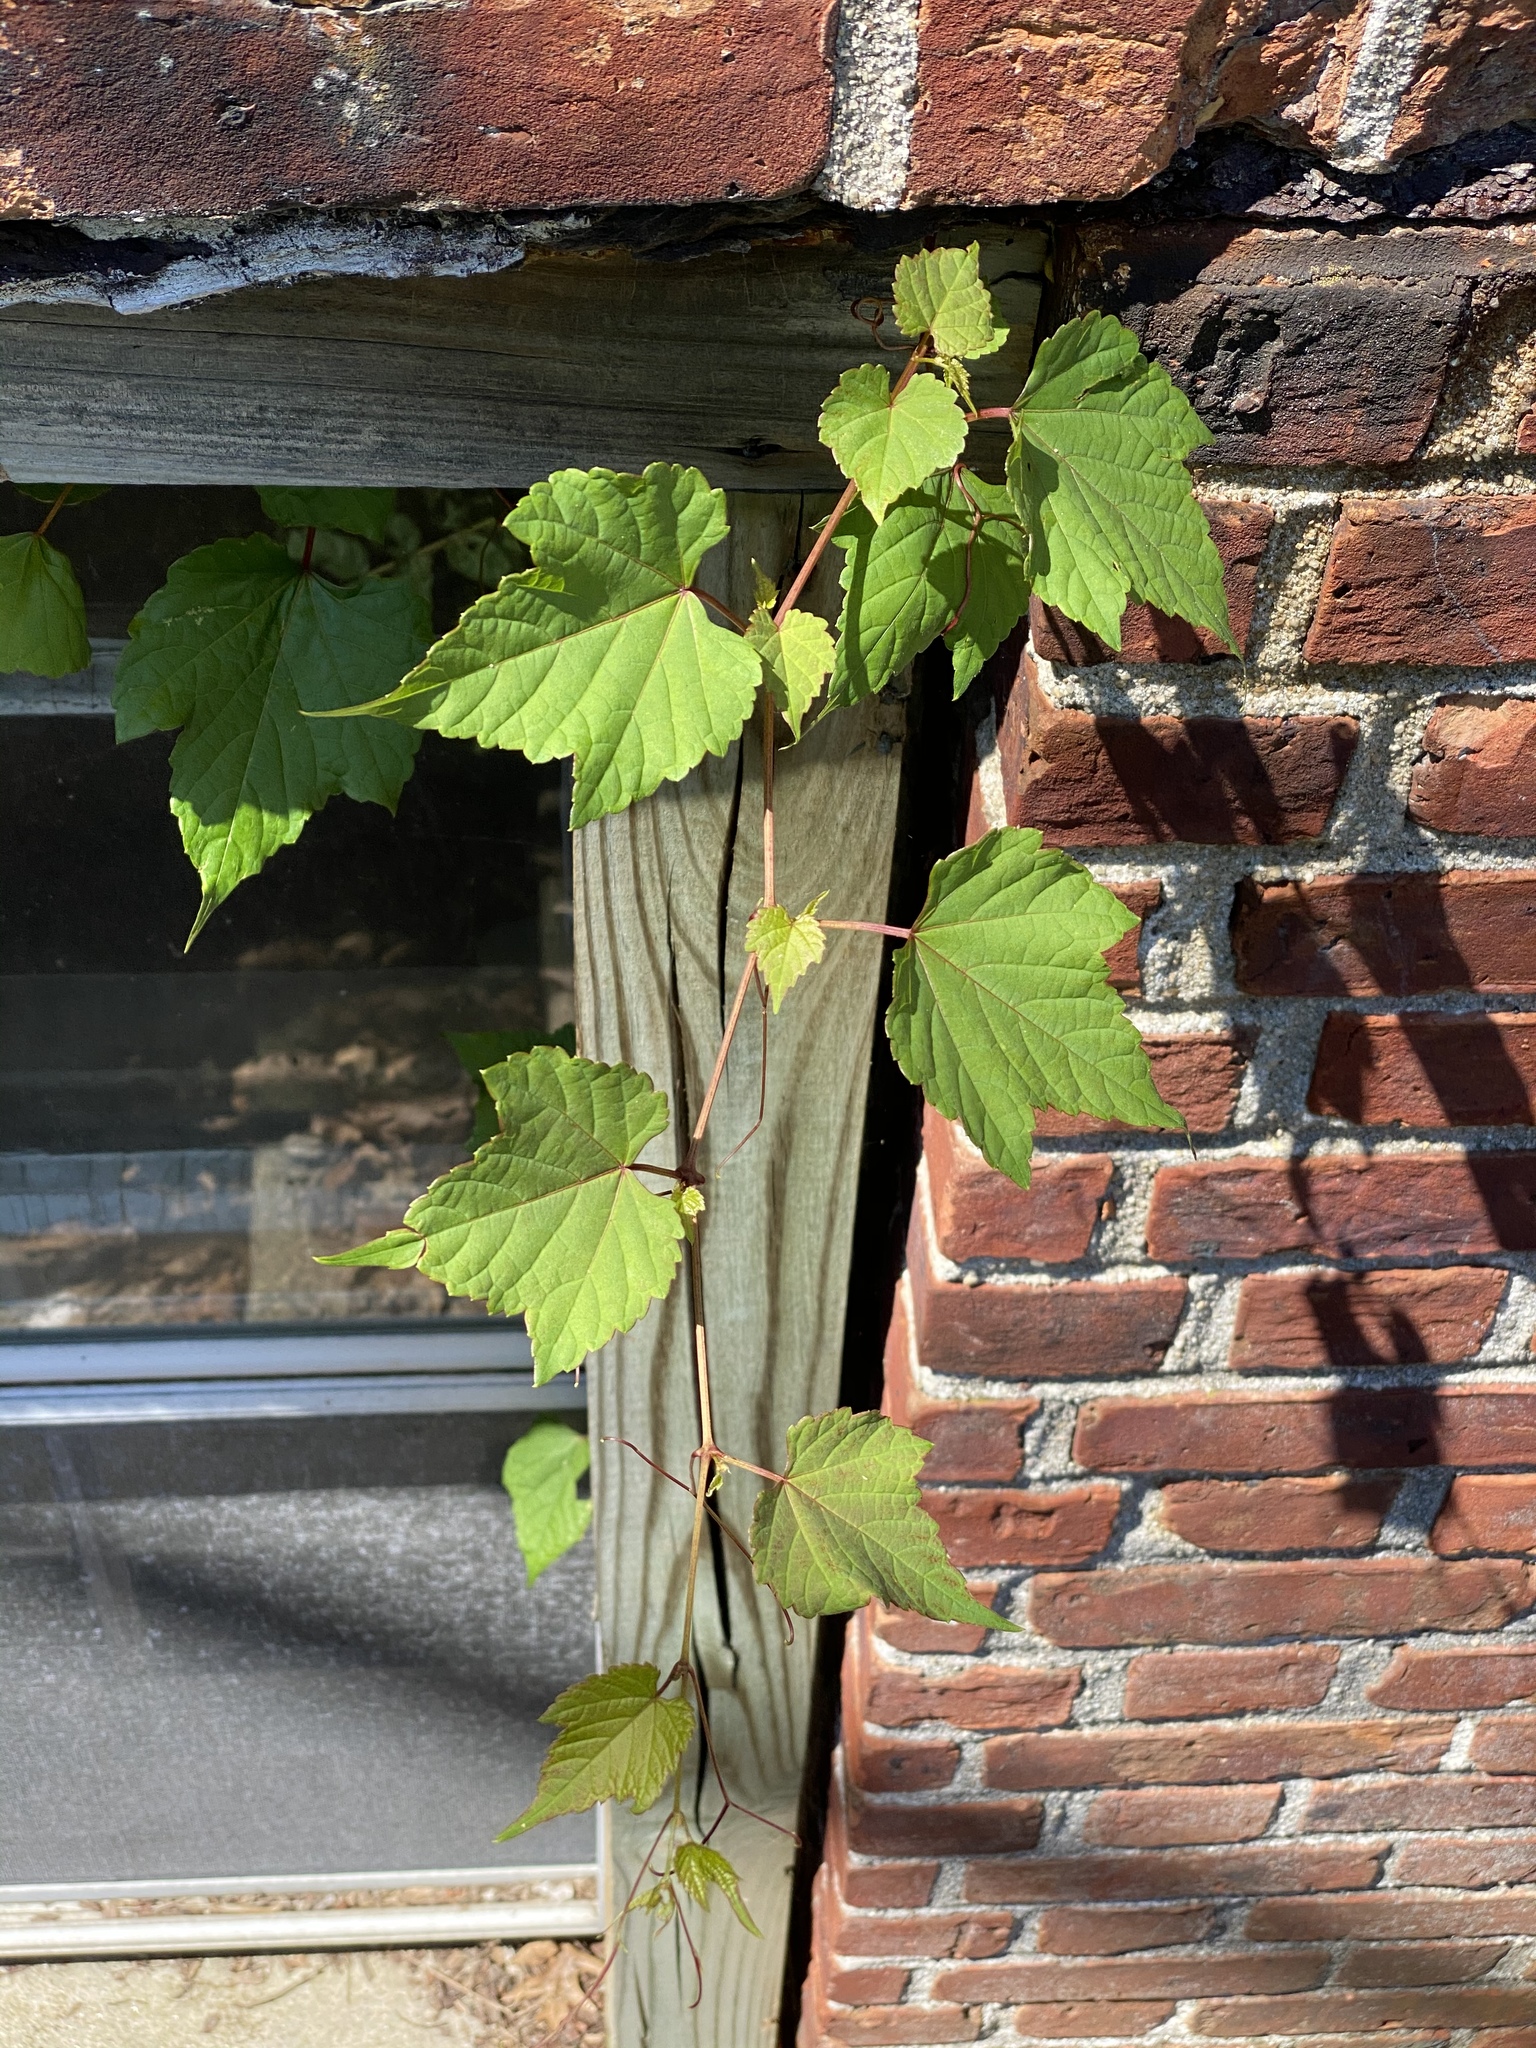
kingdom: Plantae
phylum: Tracheophyta
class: Magnoliopsida
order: Vitales
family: Vitaceae
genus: Ampelopsis
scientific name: Ampelopsis glandulosa
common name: Amur peppervine
